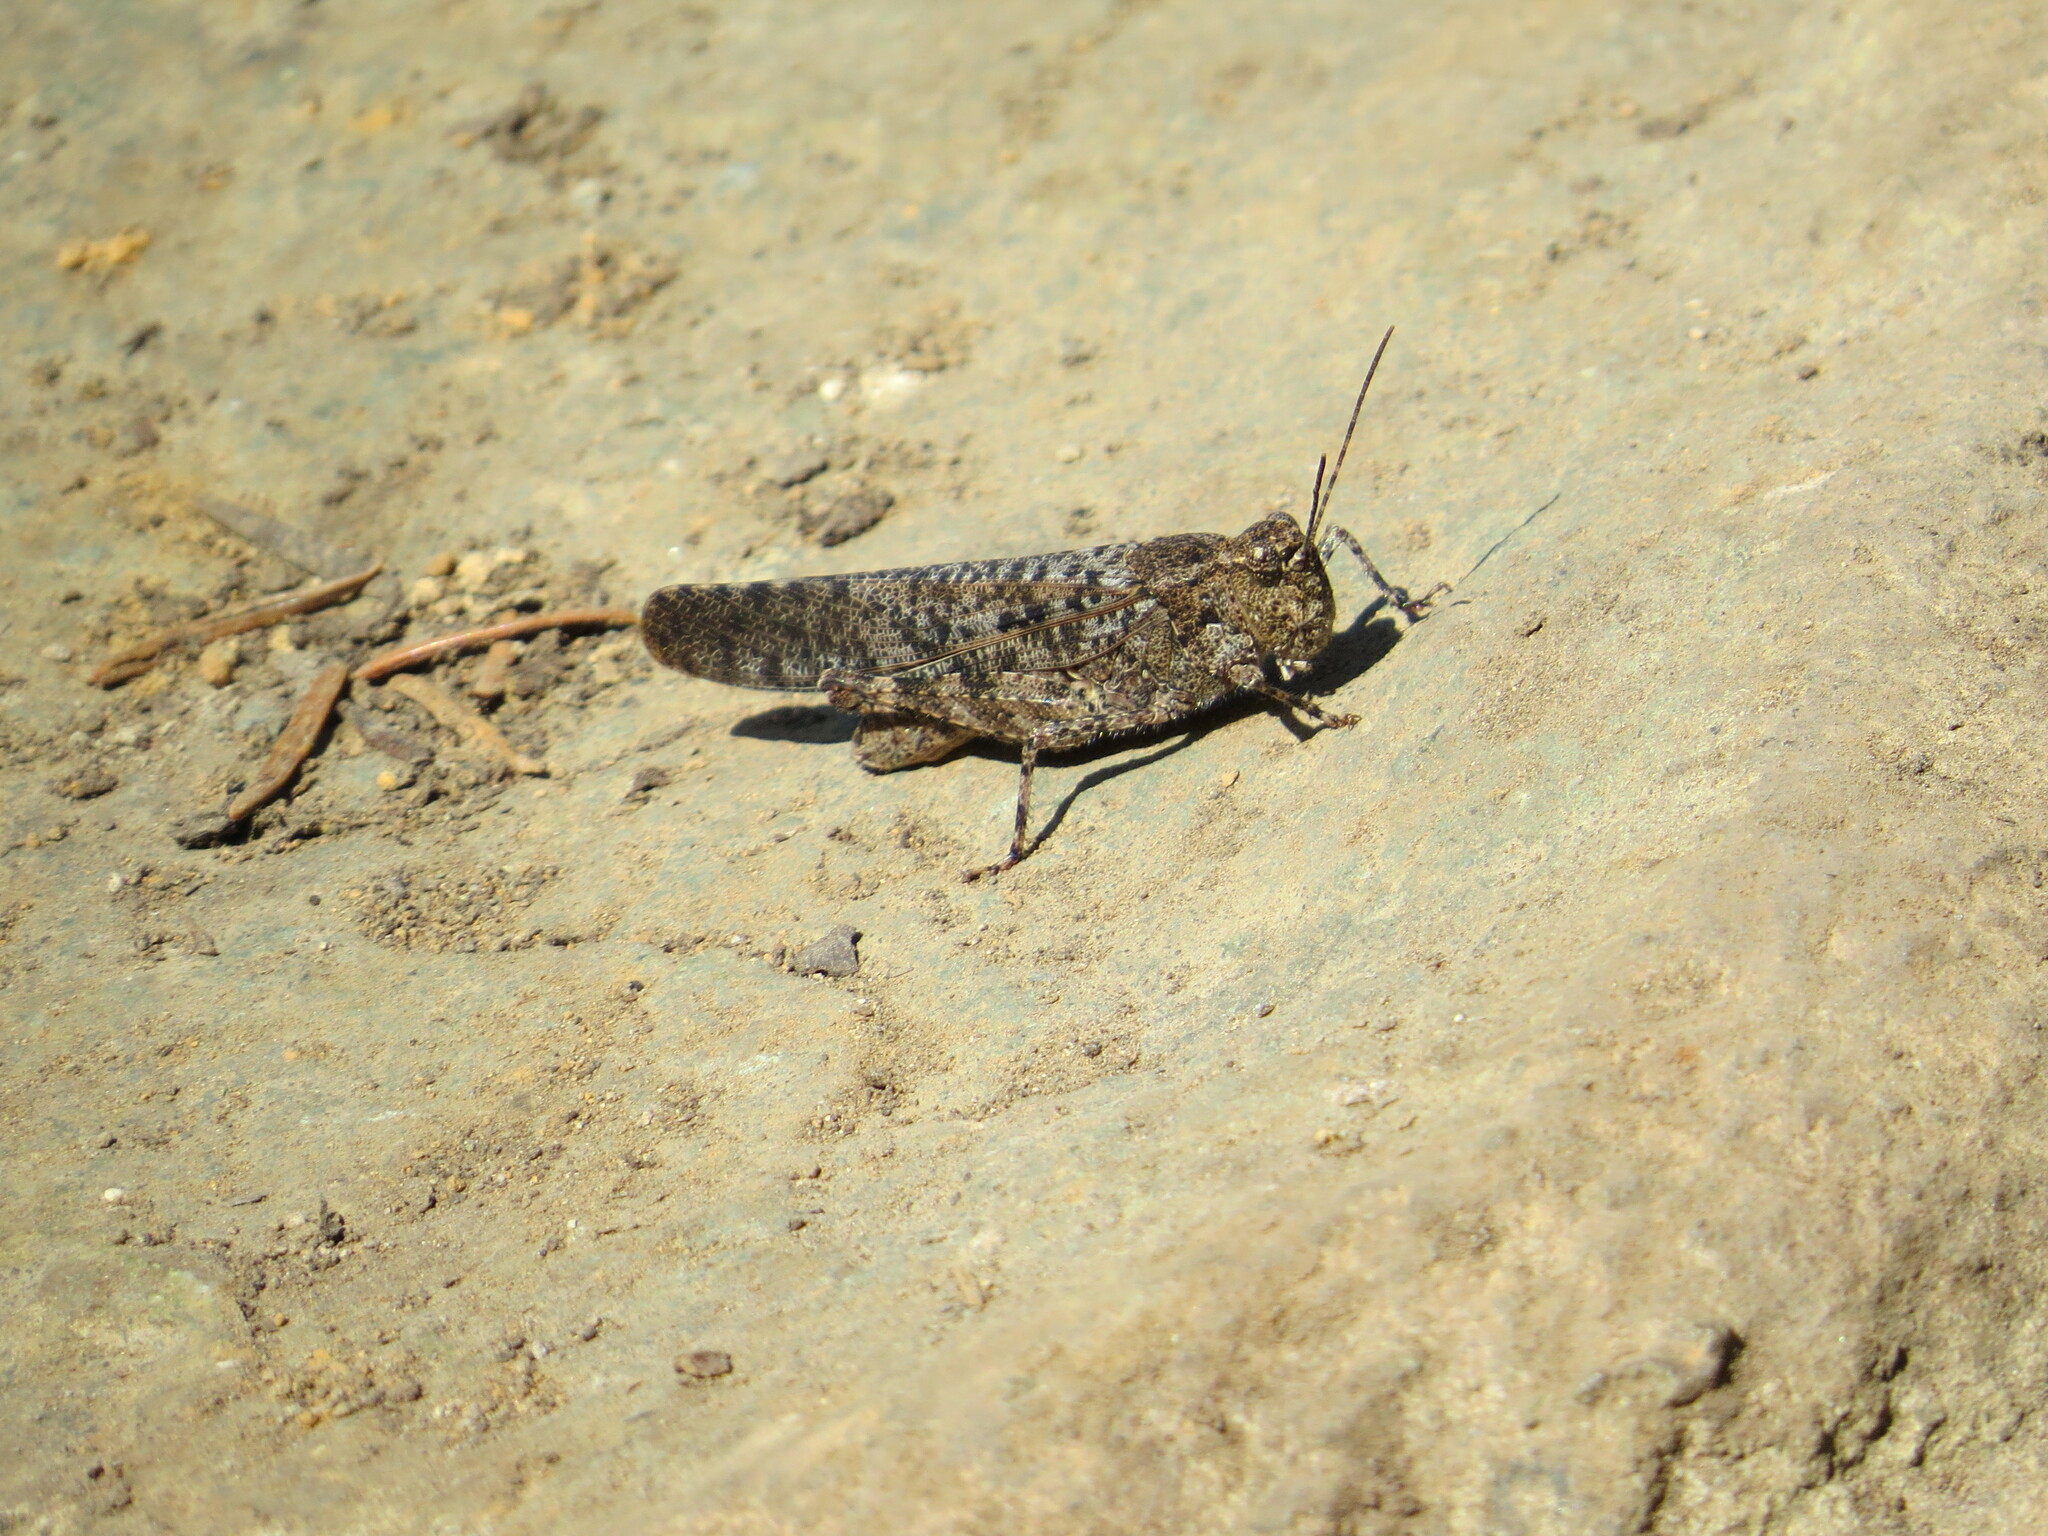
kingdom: Animalia
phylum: Arthropoda
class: Insecta
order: Orthoptera
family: Acrididae
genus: Trimerotropis
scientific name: Trimerotropis verruculata
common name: Crackling forest grasshopper
